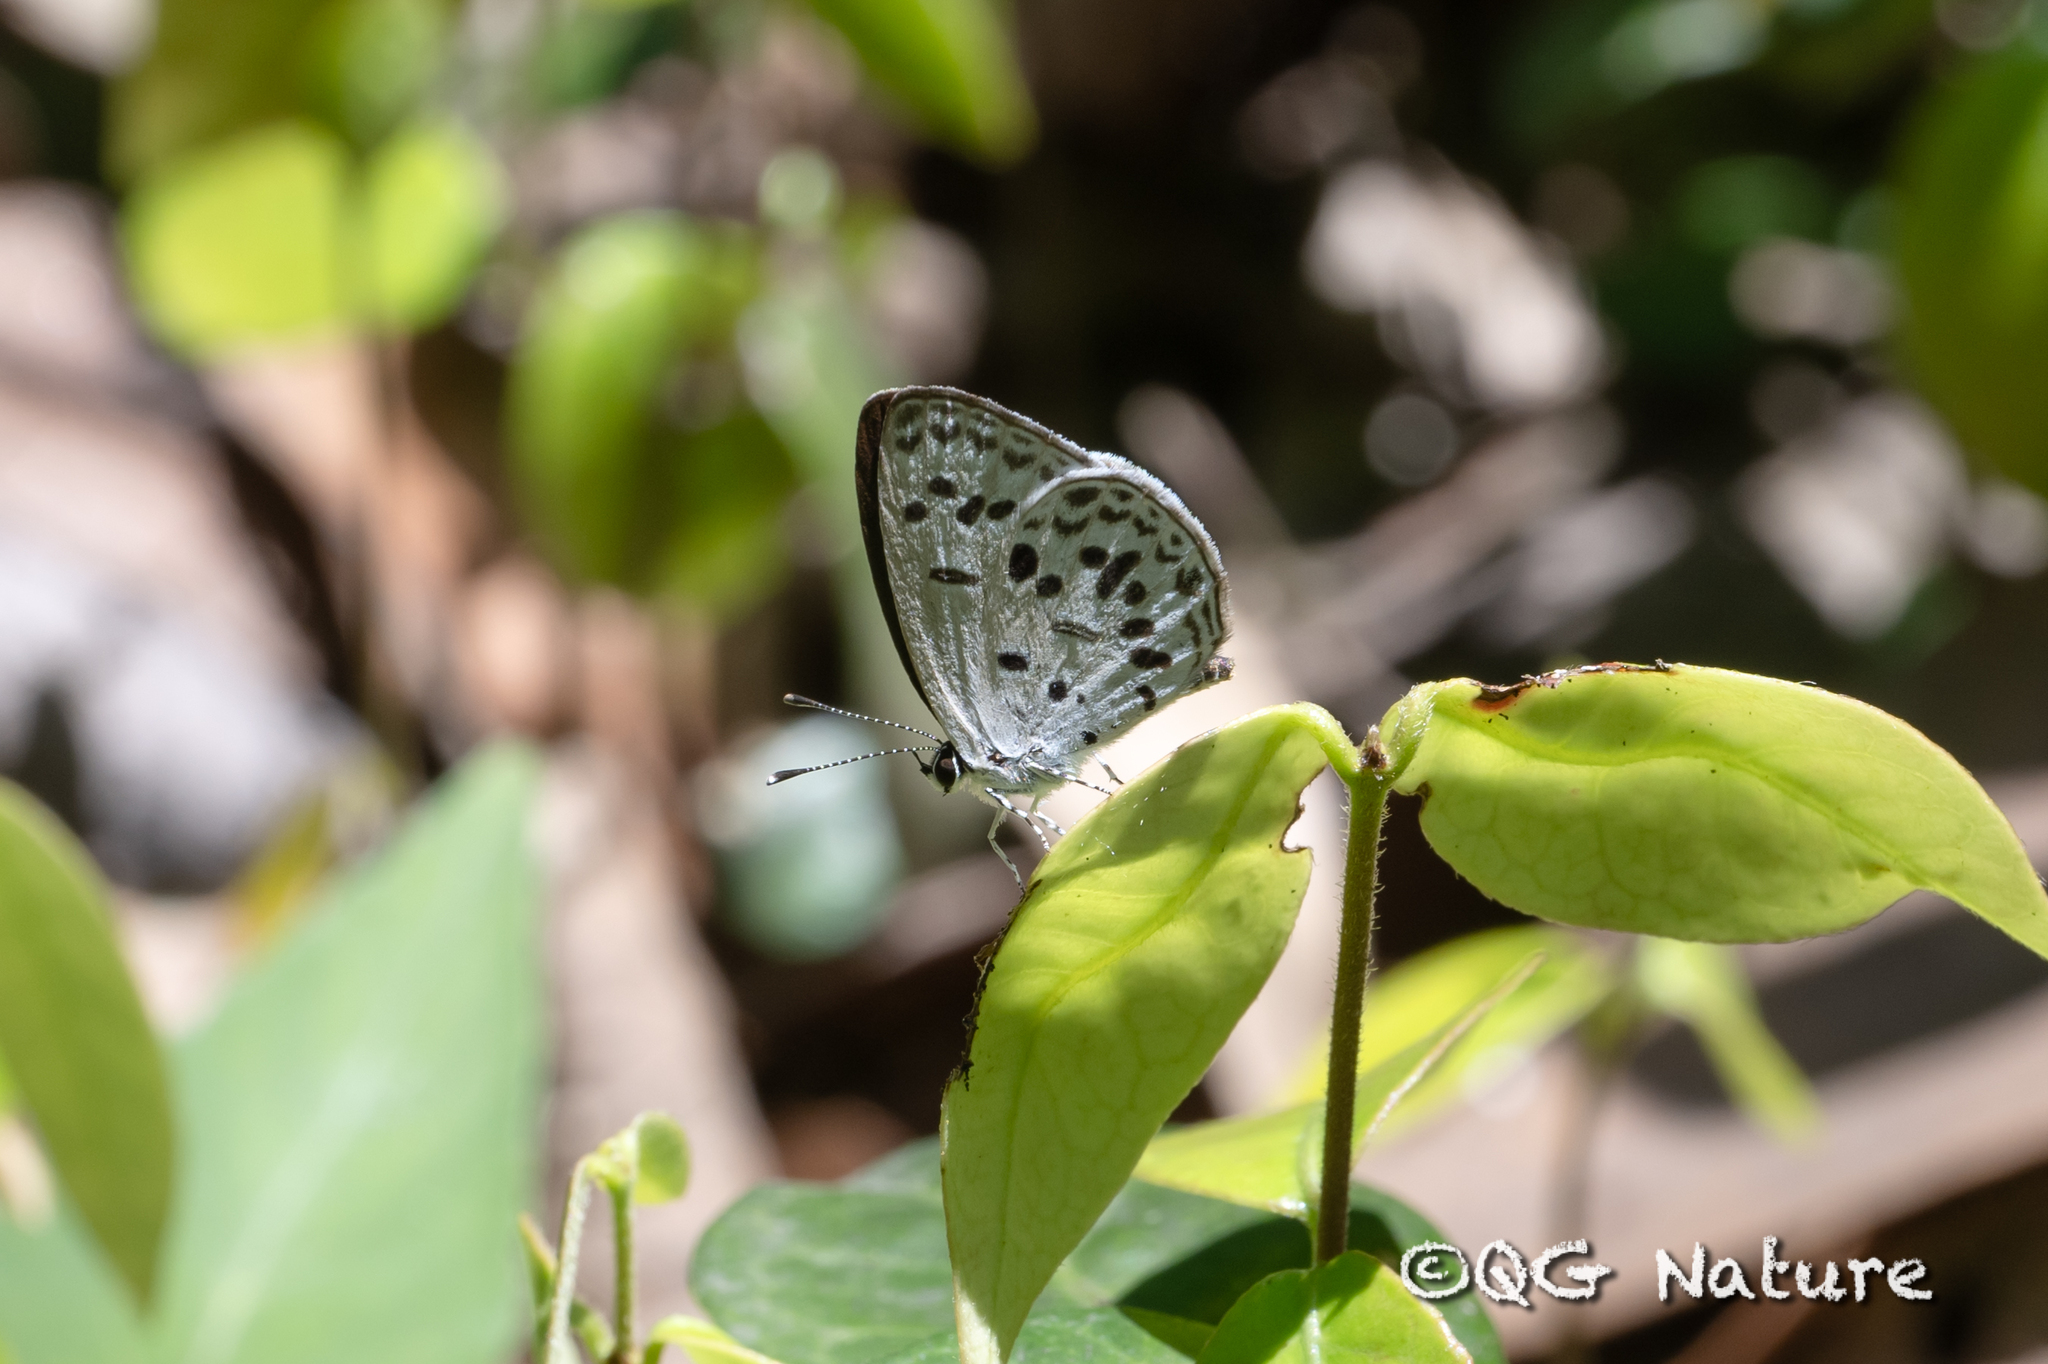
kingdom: Animalia
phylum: Arthropoda
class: Insecta
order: Lepidoptera
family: Lycaenidae
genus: Shijimia
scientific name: Shijimia moorei
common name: Bicolor cupid
